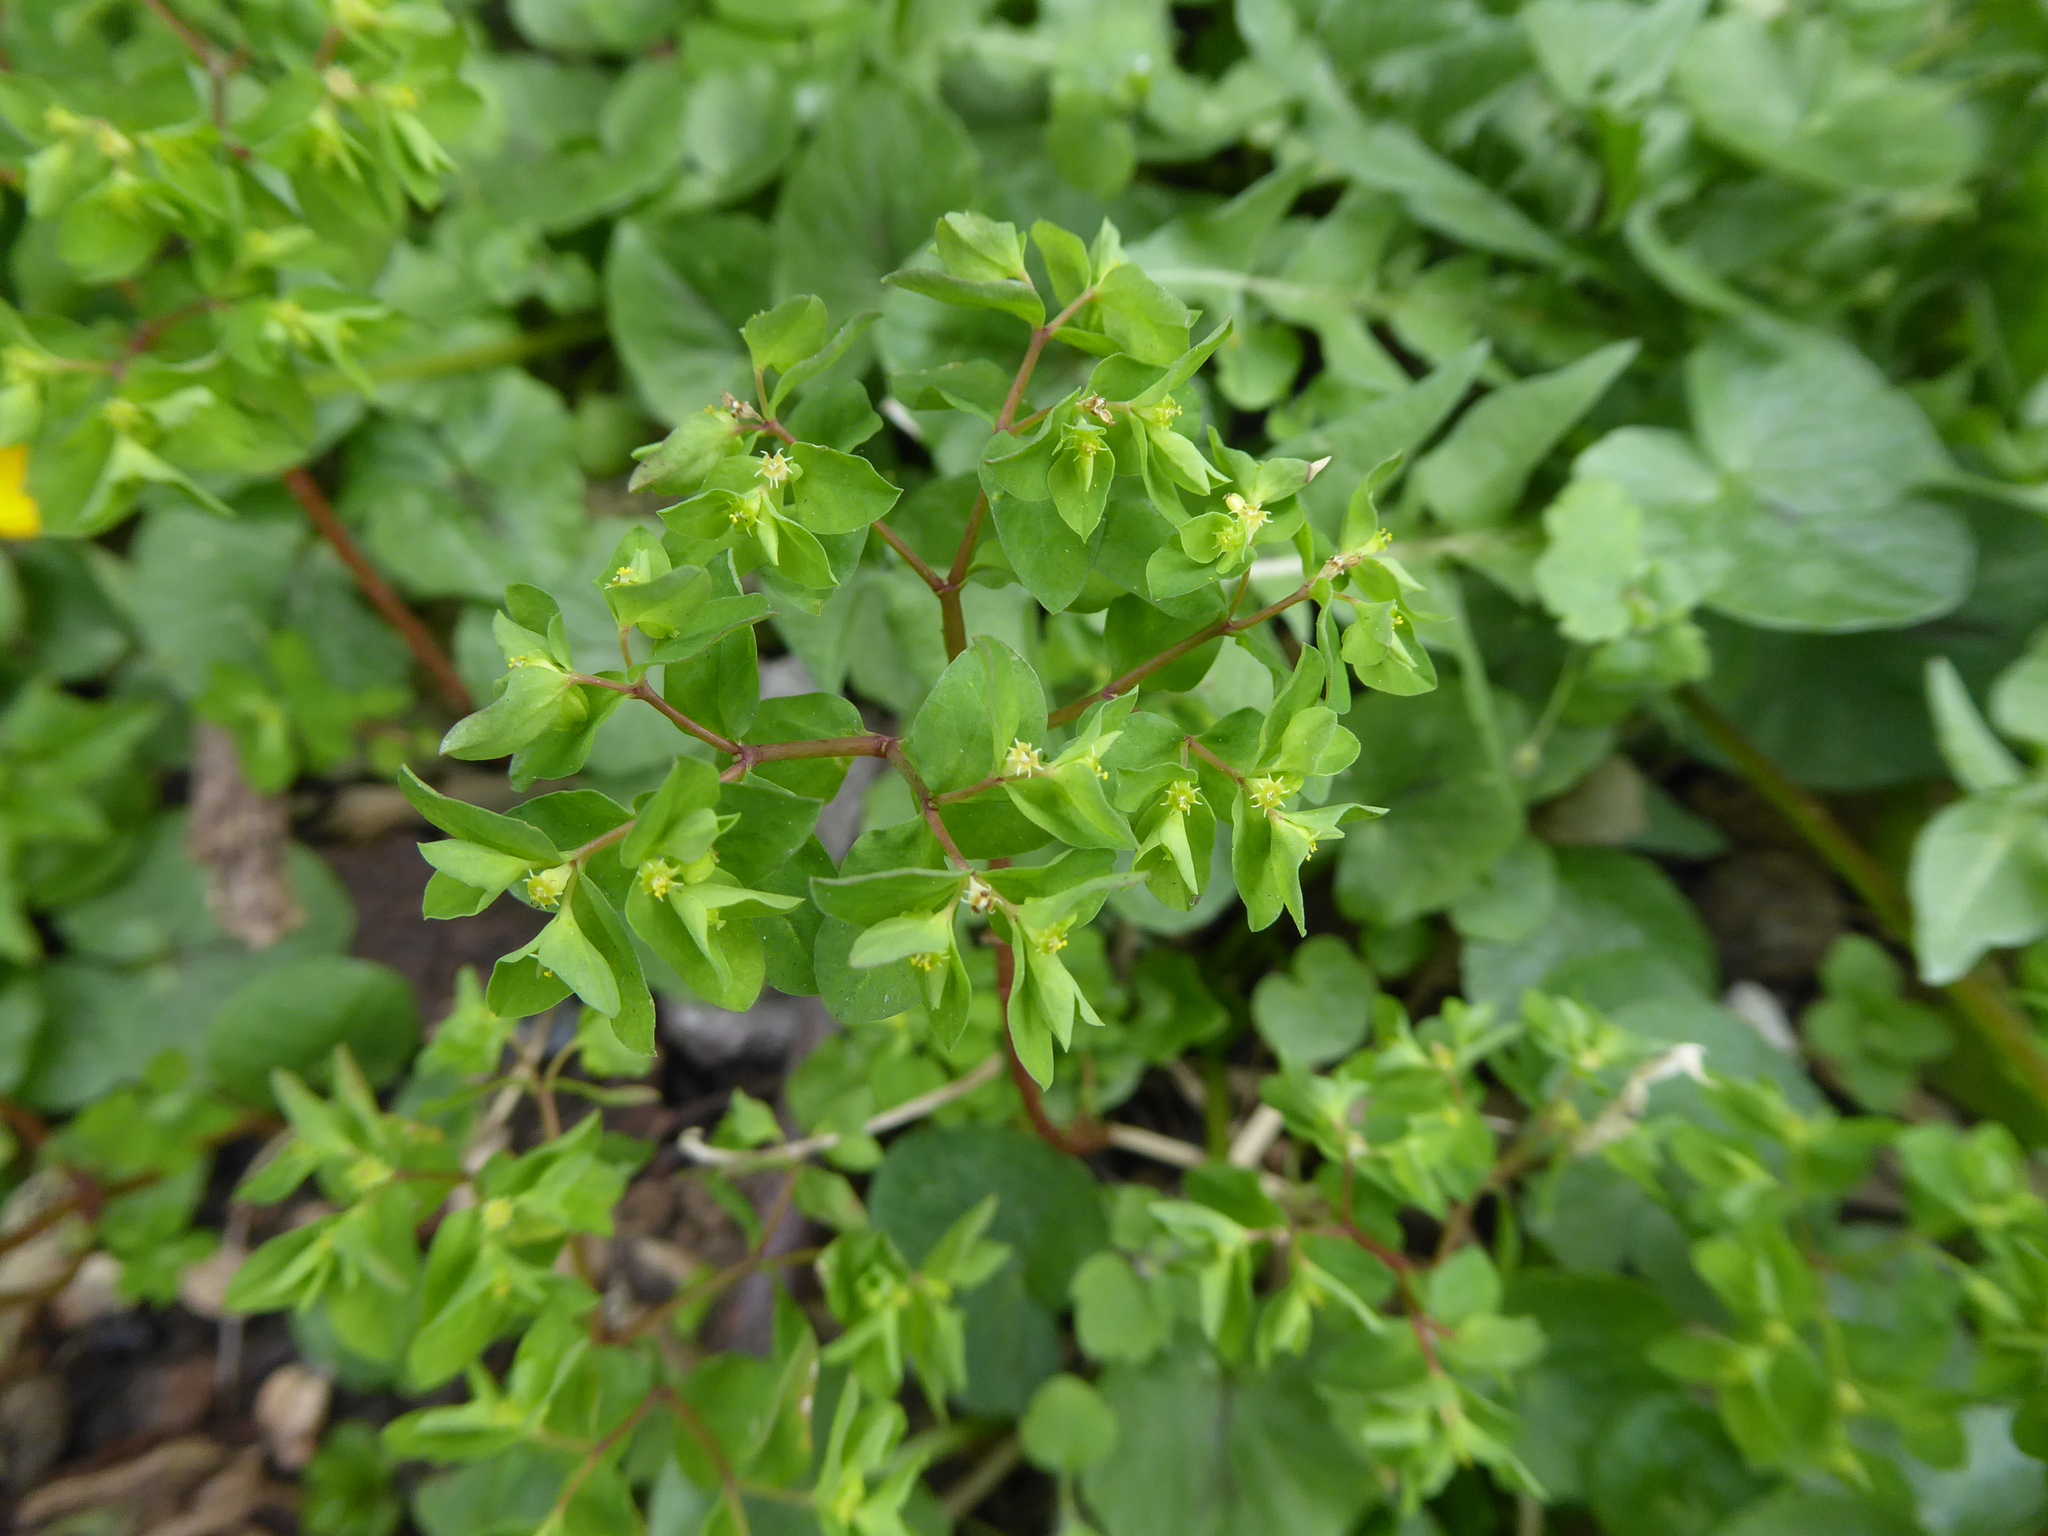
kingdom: Plantae
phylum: Tracheophyta
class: Magnoliopsida
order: Malpighiales
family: Euphorbiaceae
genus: Euphorbia
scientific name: Euphorbia peplus
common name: Petty spurge
